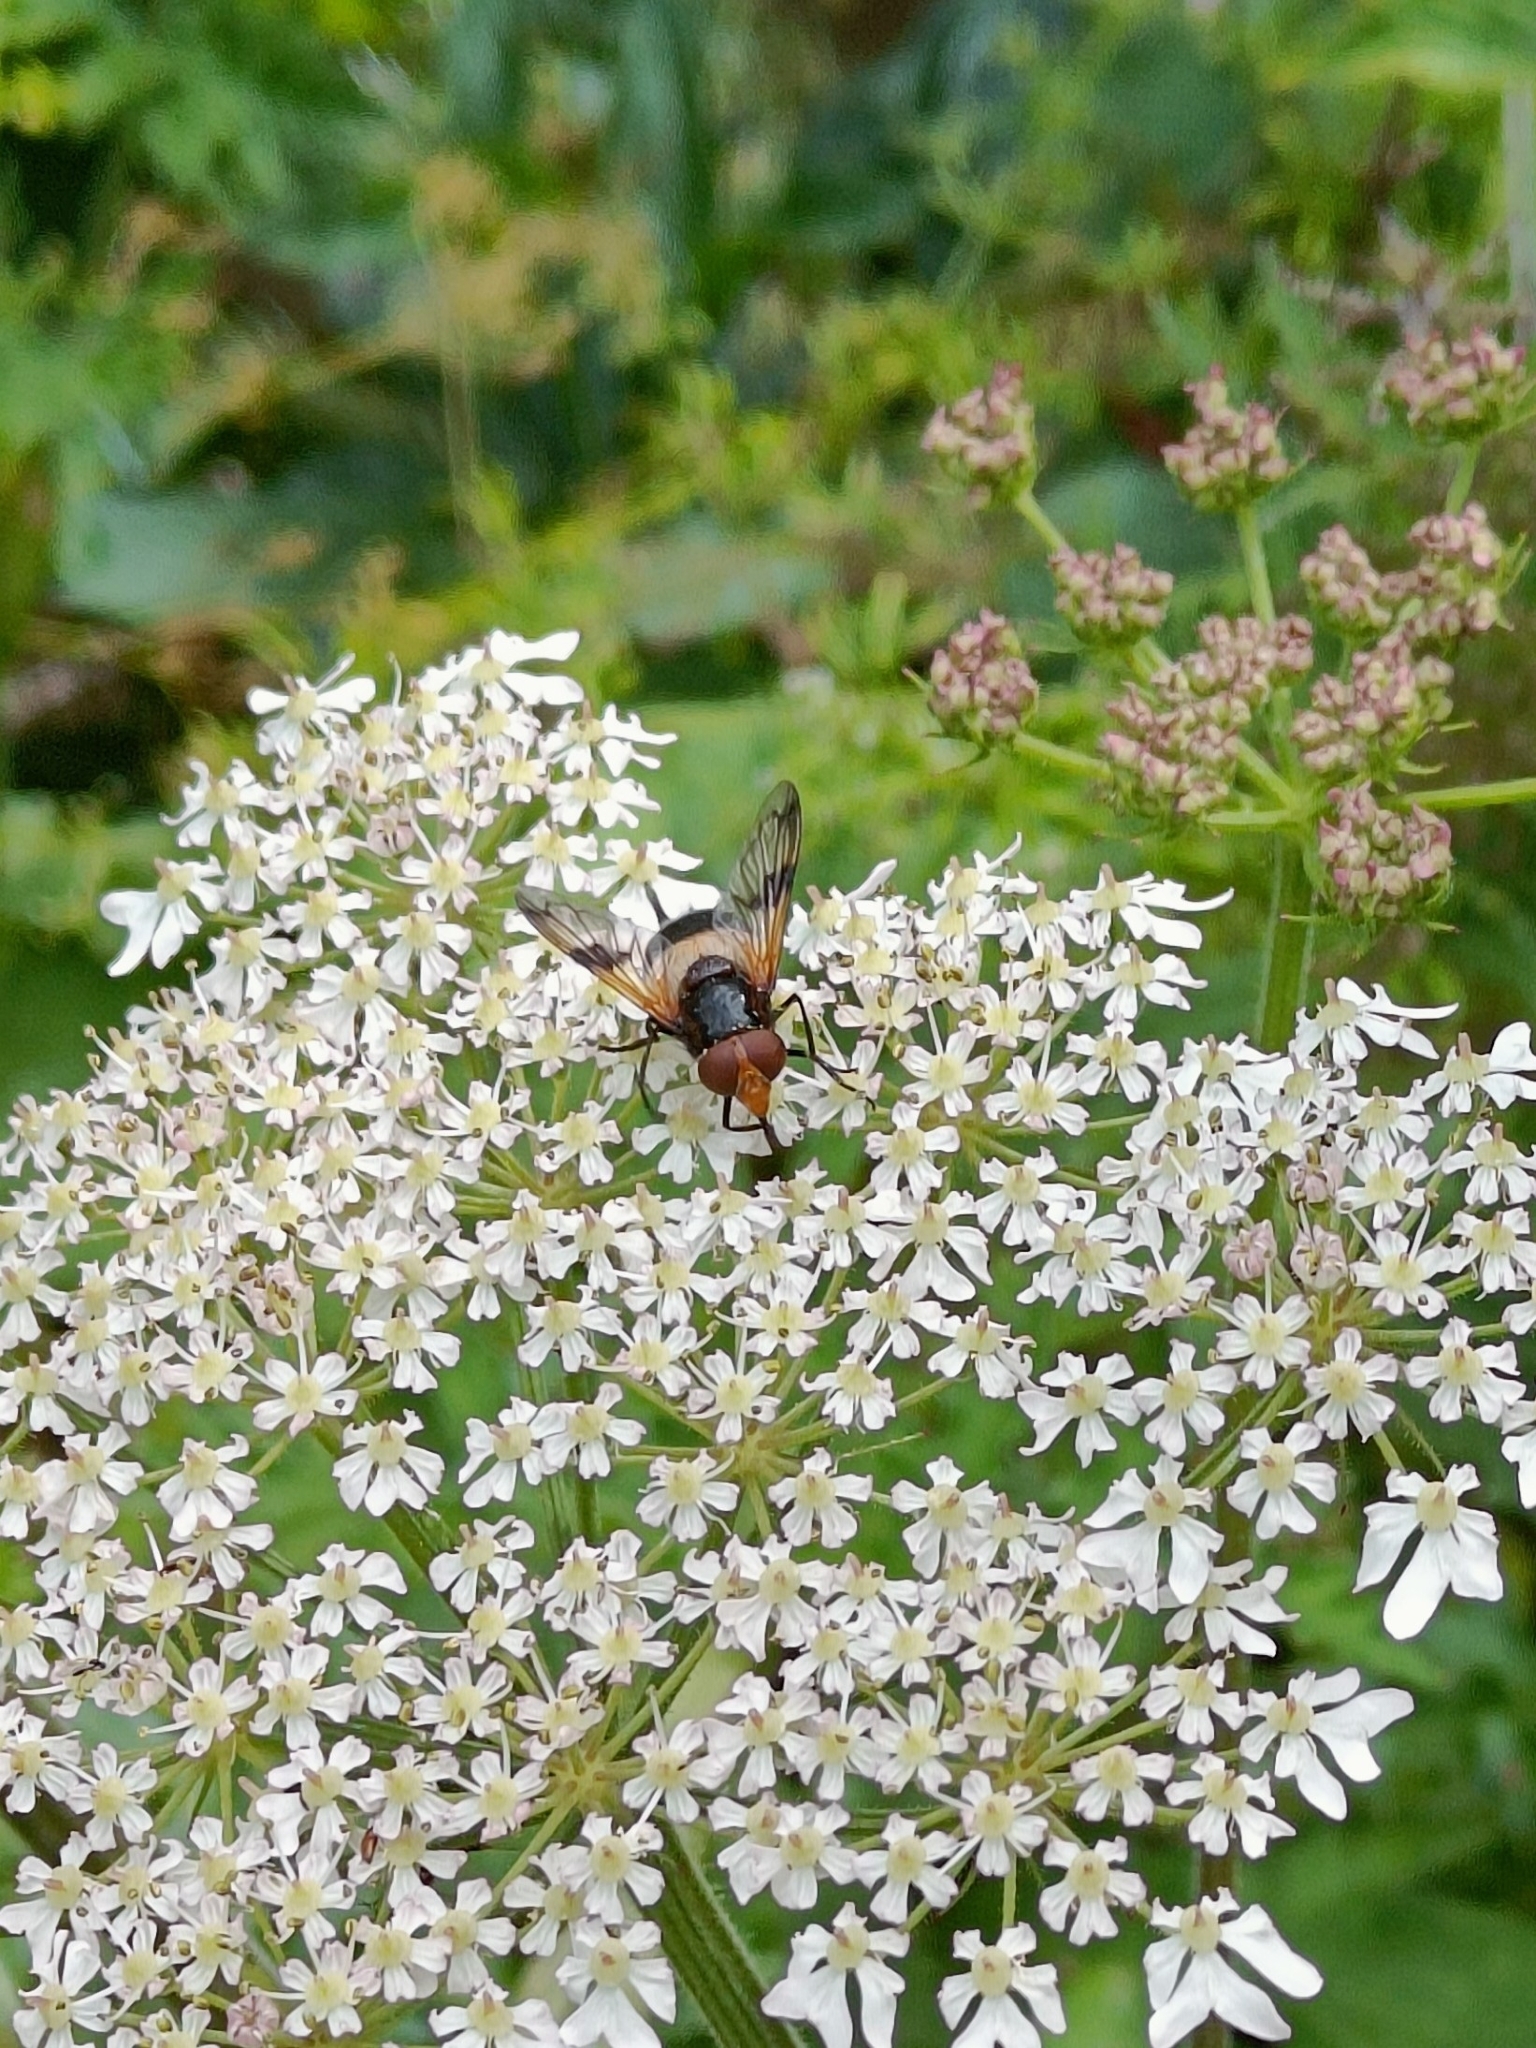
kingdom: Animalia
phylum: Arthropoda
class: Insecta
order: Diptera
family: Syrphidae
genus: Volucella
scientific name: Volucella pellucens
